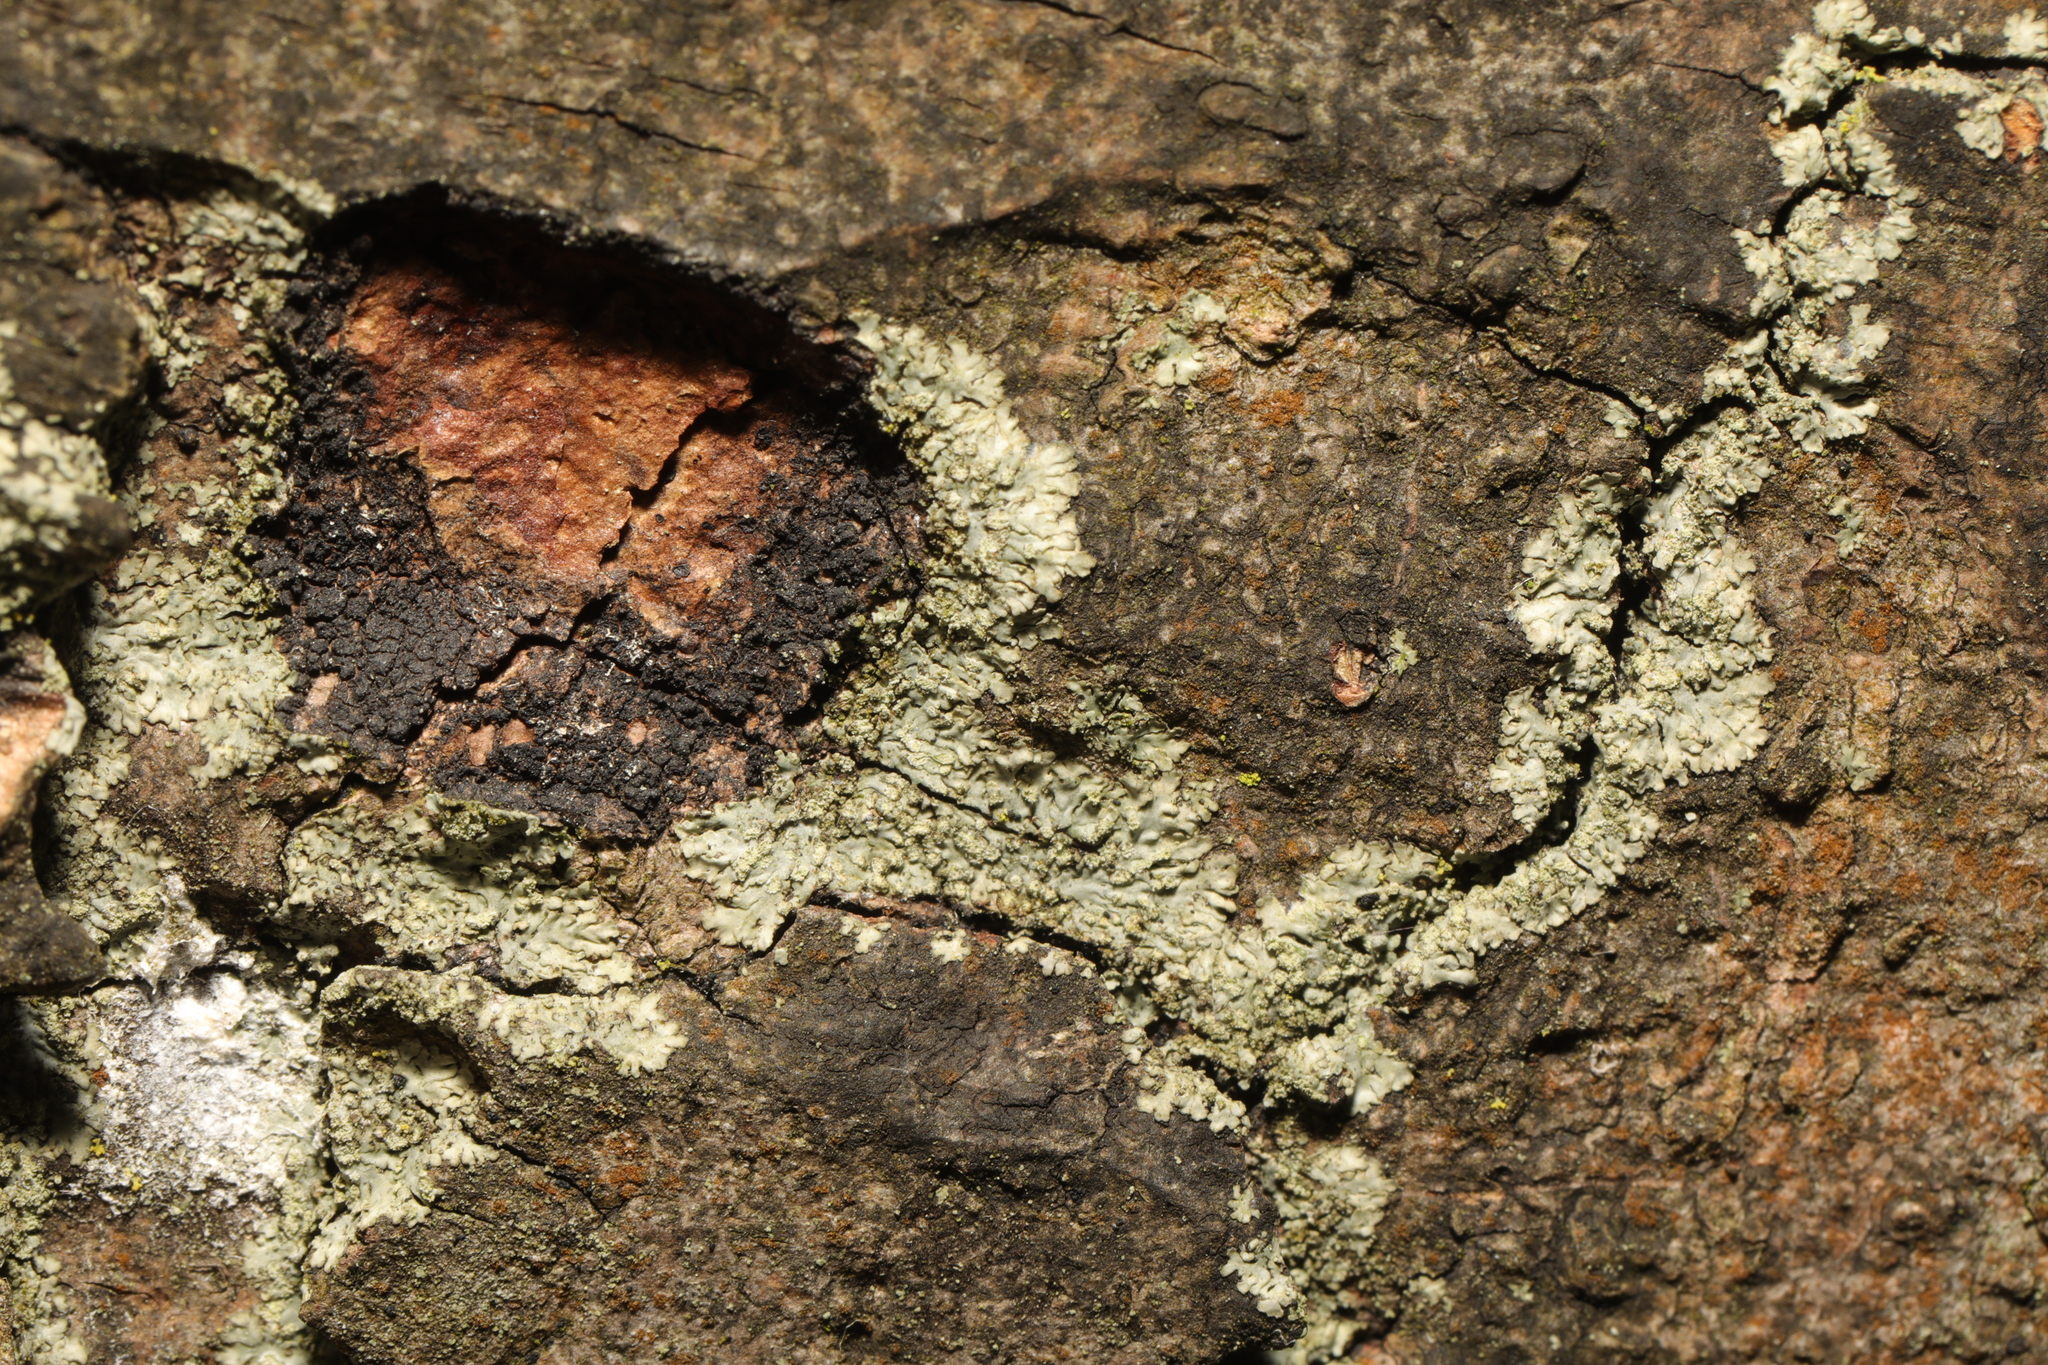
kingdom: Fungi
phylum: Ascomycota
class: Lecanoromycetes
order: Caliciales
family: Physciaceae
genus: Hyperphyscia
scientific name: Hyperphyscia adglutinata
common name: Grainy shadow-crust lichen
